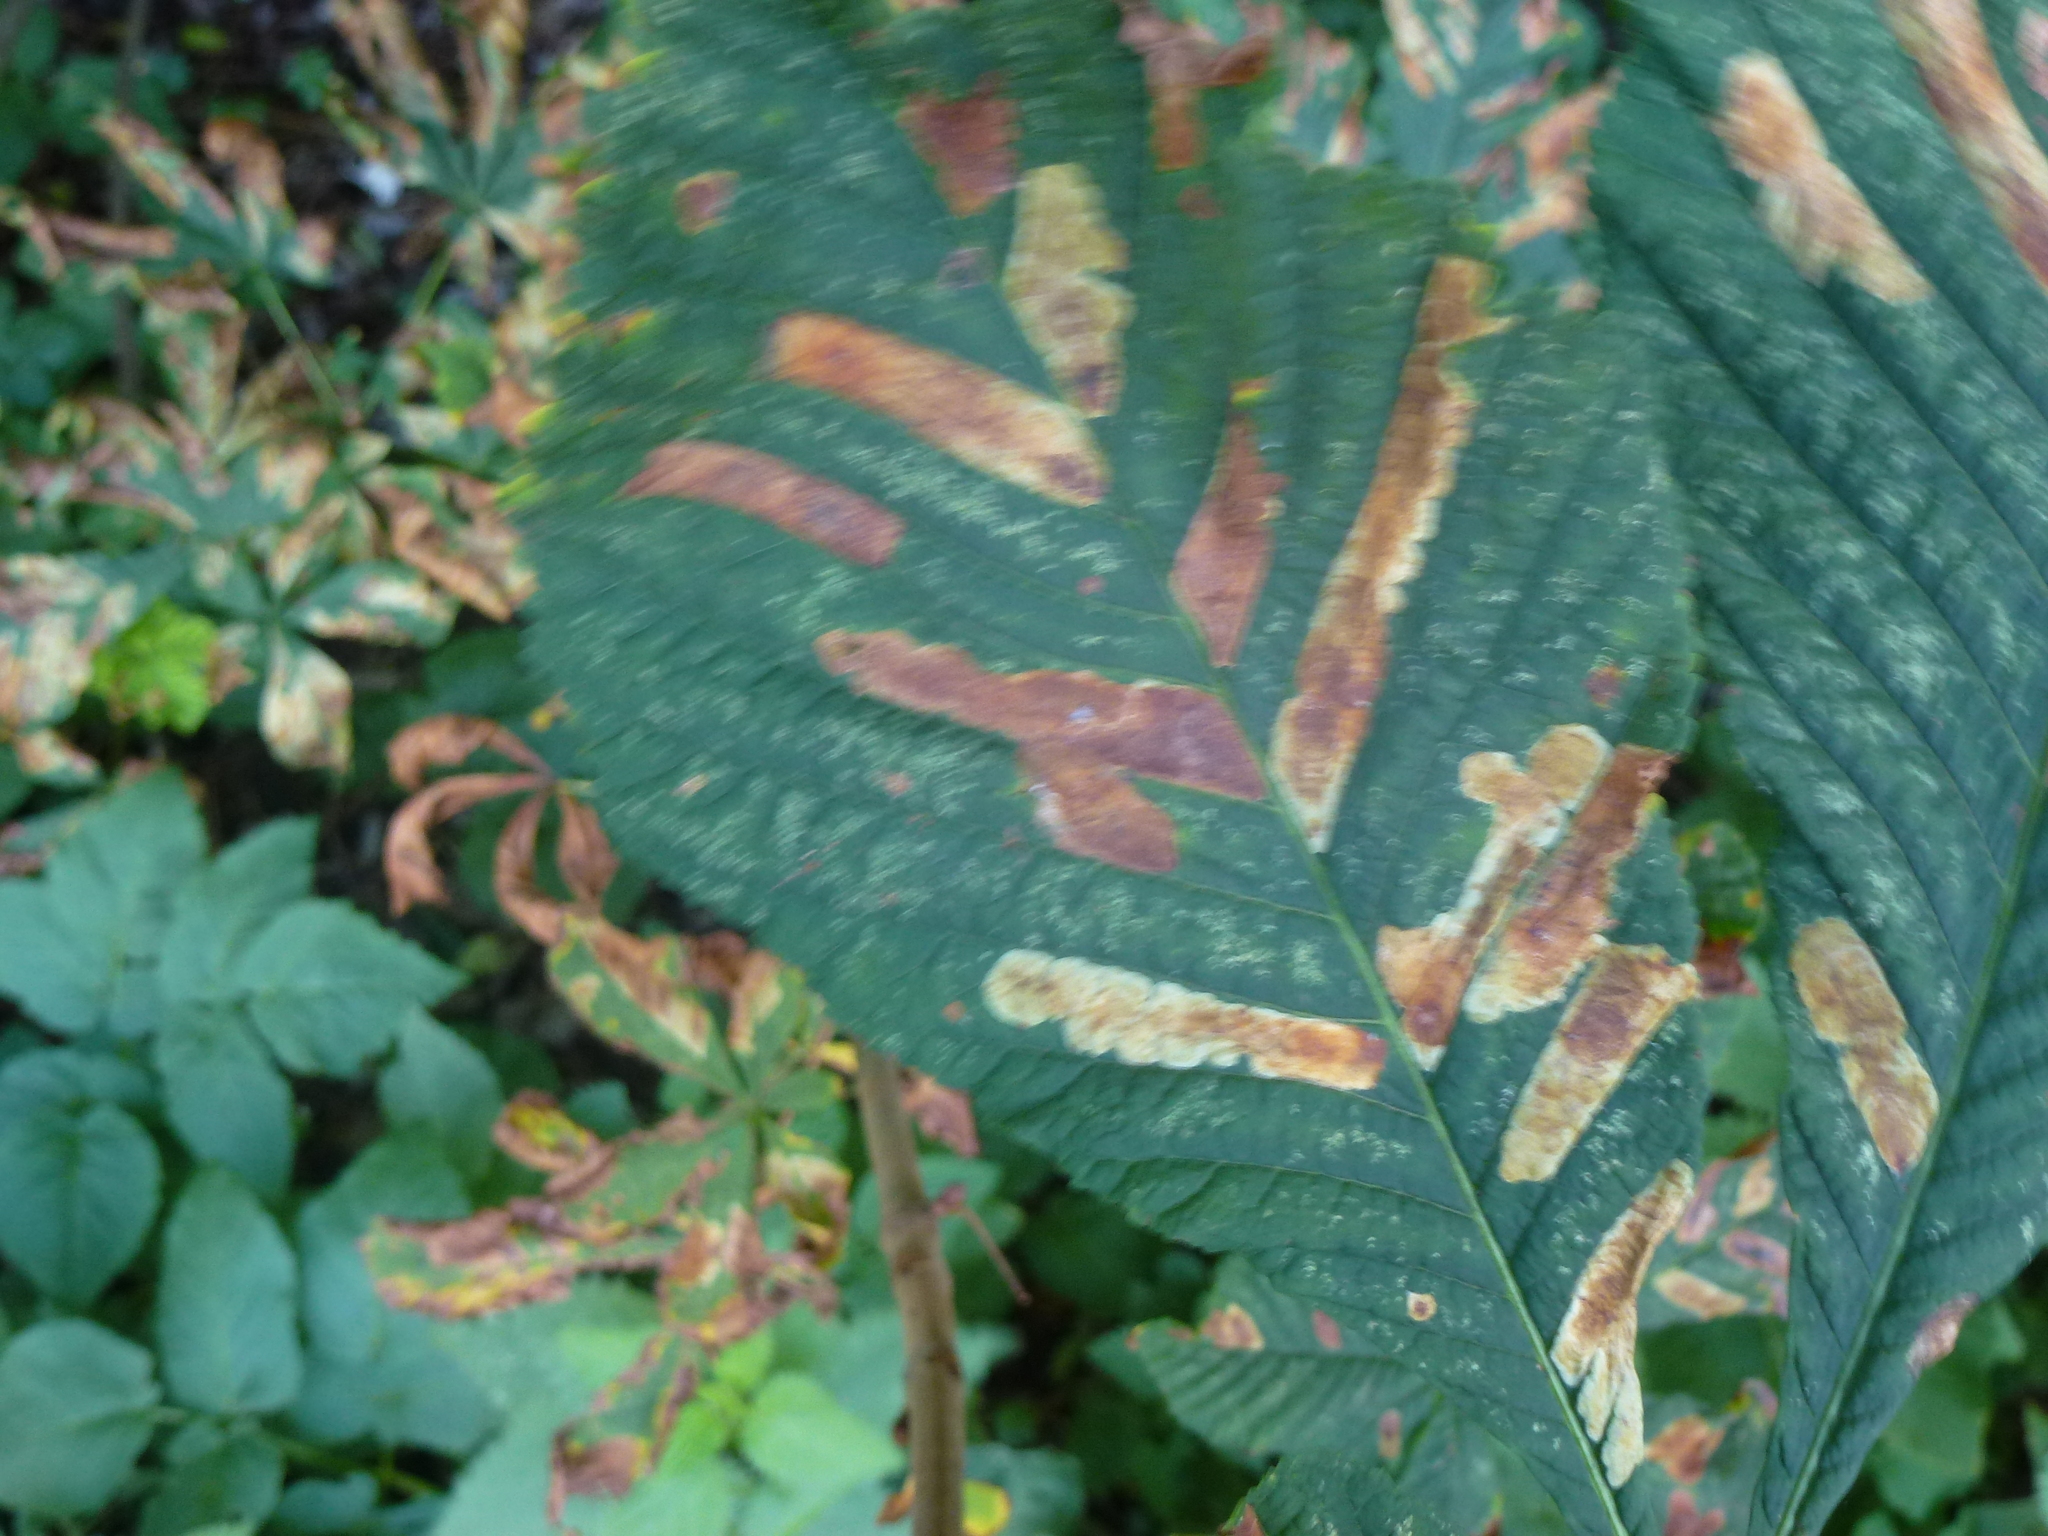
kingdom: Plantae
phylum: Tracheophyta
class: Magnoliopsida
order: Sapindales
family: Sapindaceae
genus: Aesculus
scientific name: Aesculus hippocastanum
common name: Horse-chestnut
